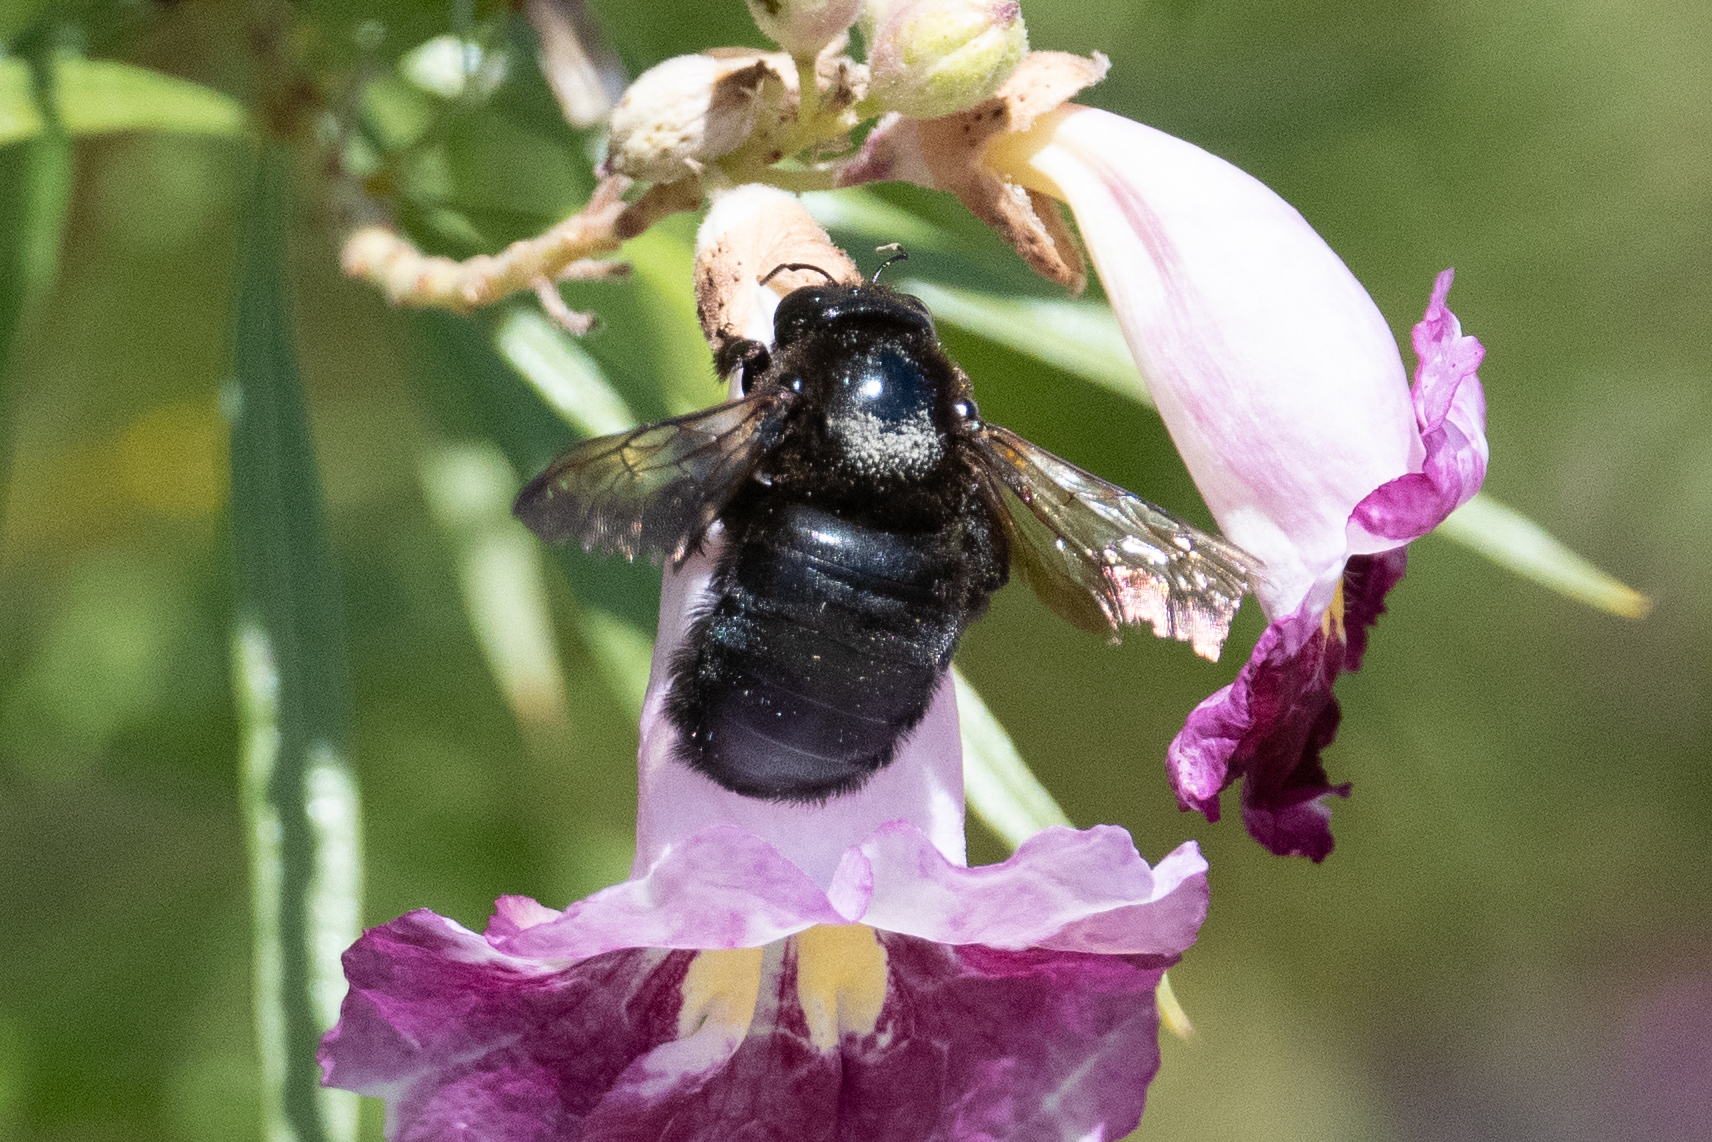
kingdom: Animalia
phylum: Arthropoda
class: Insecta
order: Hymenoptera
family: Apidae
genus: Xylocopa
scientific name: Xylocopa sonorina
